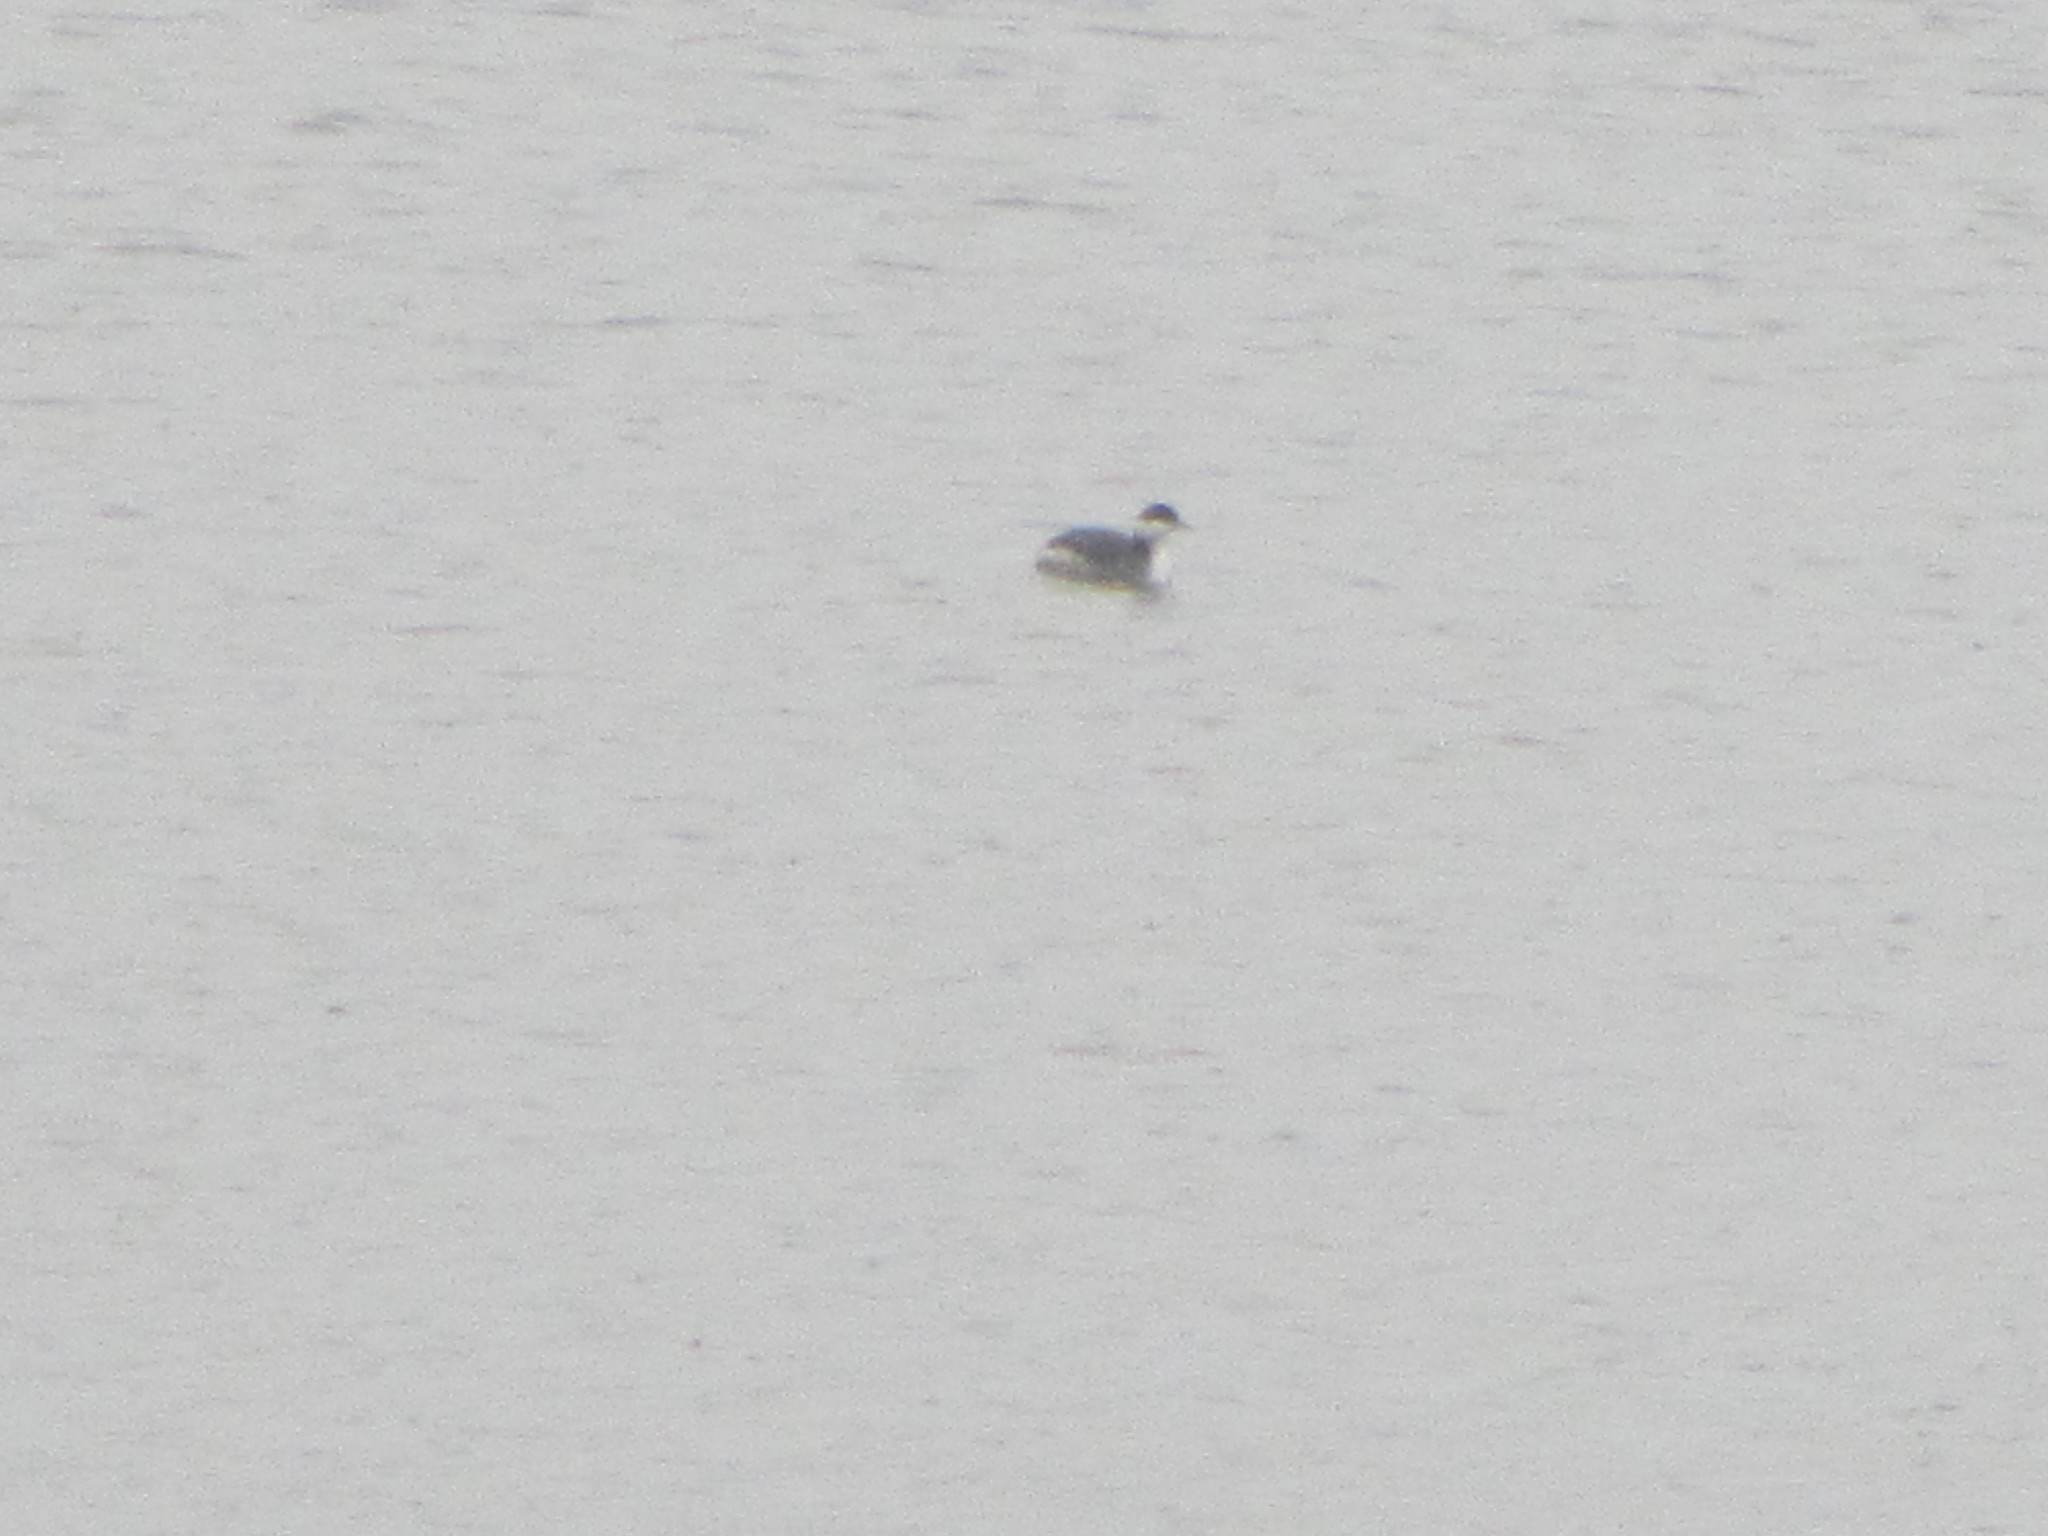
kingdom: Animalia
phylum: Chordata
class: Aves
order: Podicipediformes
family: Podicipedidae
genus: Podiceps
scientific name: Podiceps auritus
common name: Horned grebe
